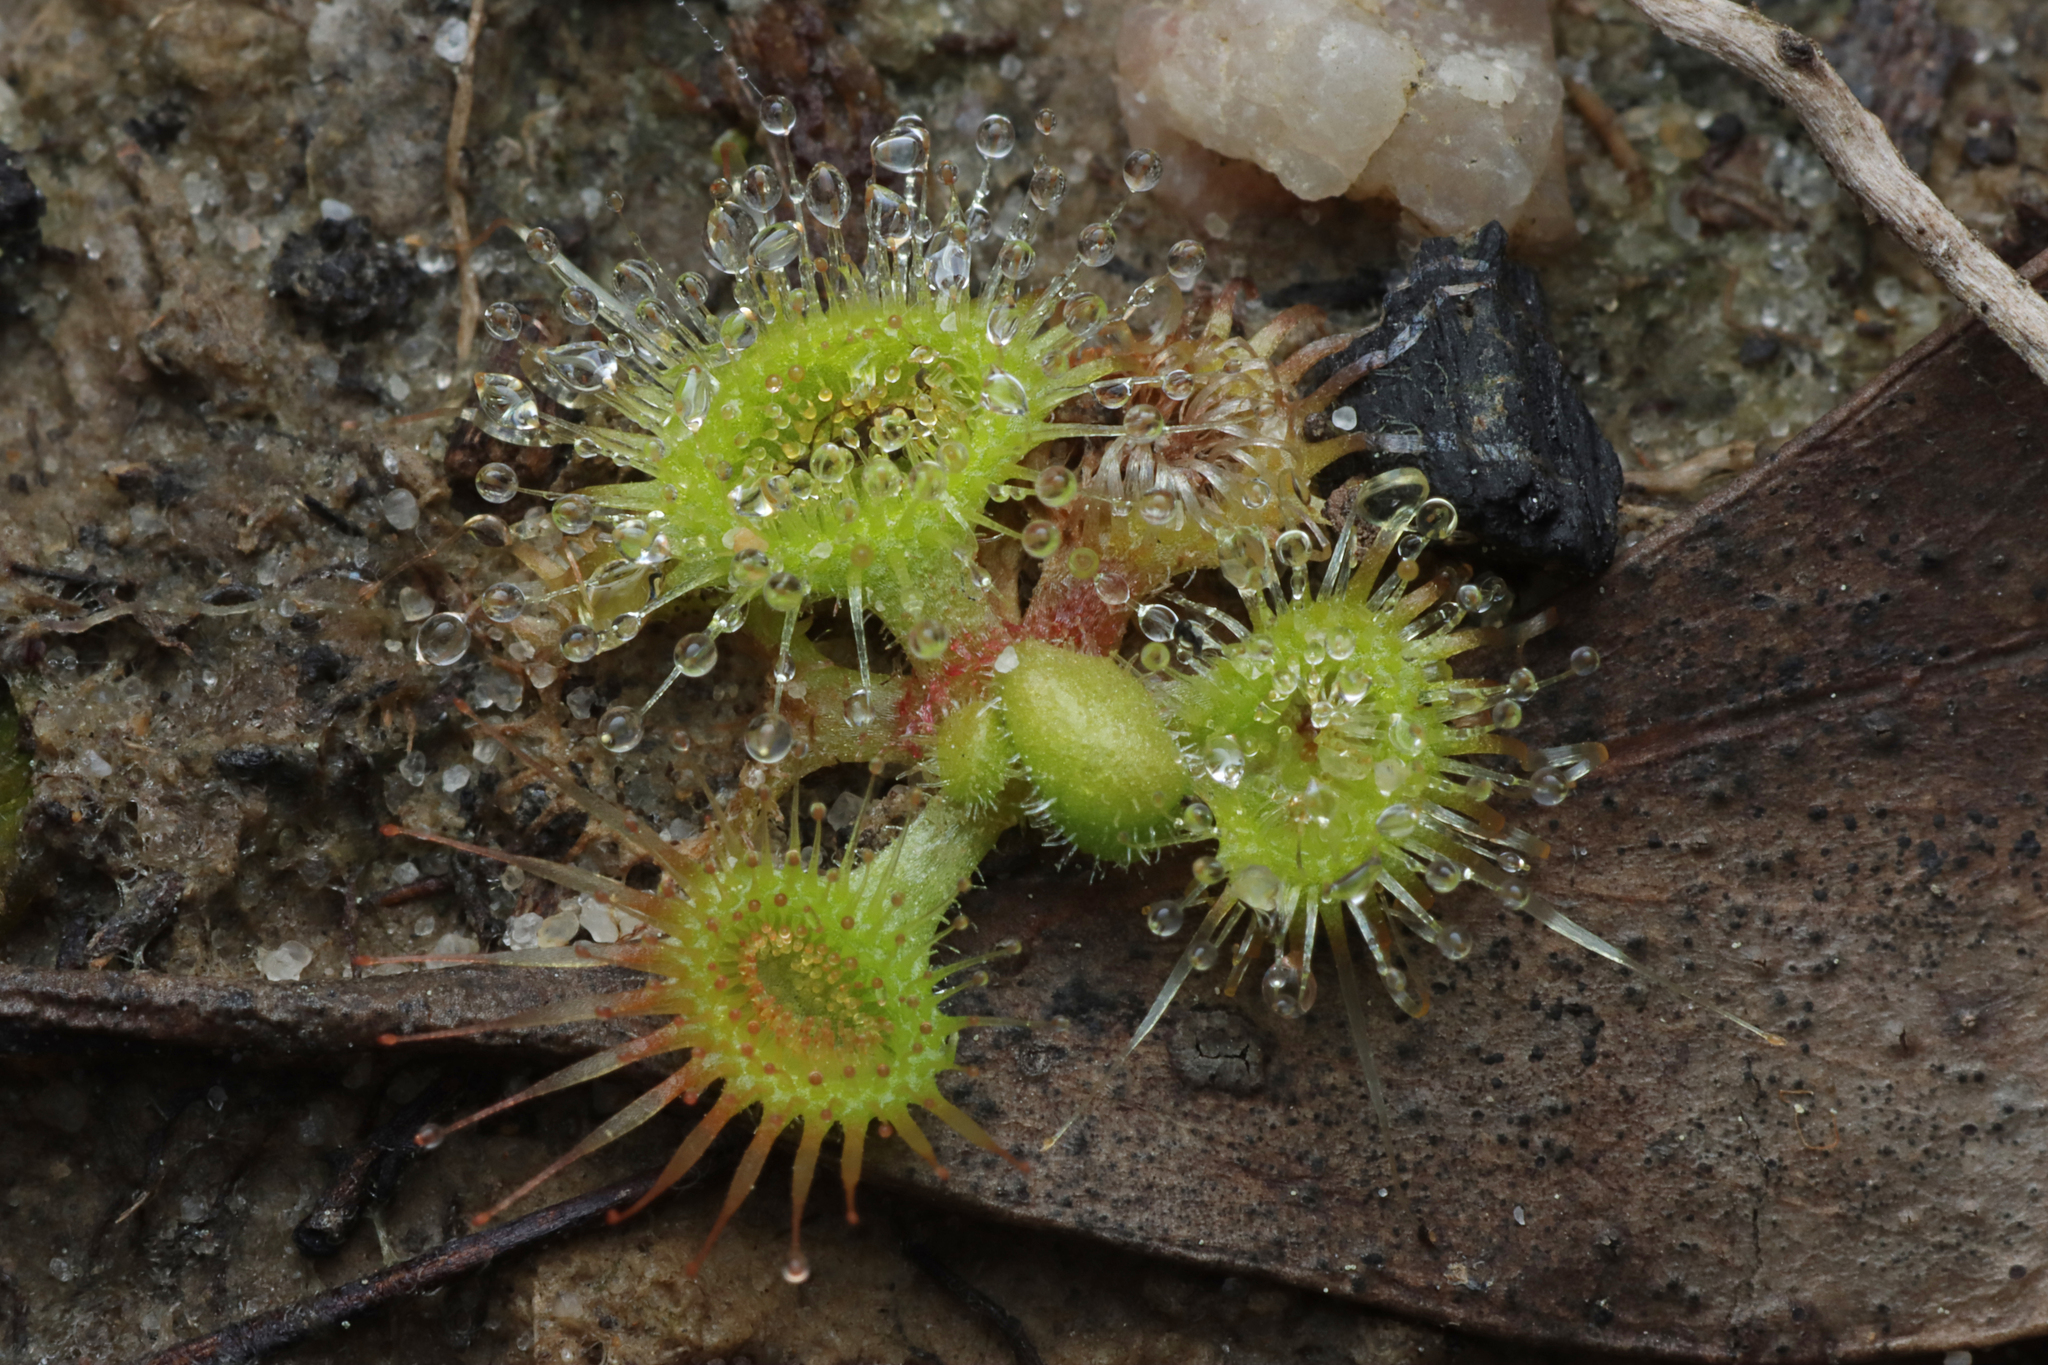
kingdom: Plantae
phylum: Tracheophyta
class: Magnoliopsida
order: Caryophyllales
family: Droseraceae
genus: Drosera
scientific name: Drosera glanduligera
